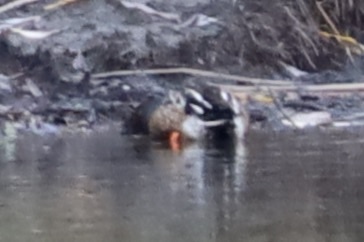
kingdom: Animalia
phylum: Chordata
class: Aves
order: Anseriformes
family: Anatidae
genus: Spatula
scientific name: Spatula clypeata
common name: Northern shoveler
